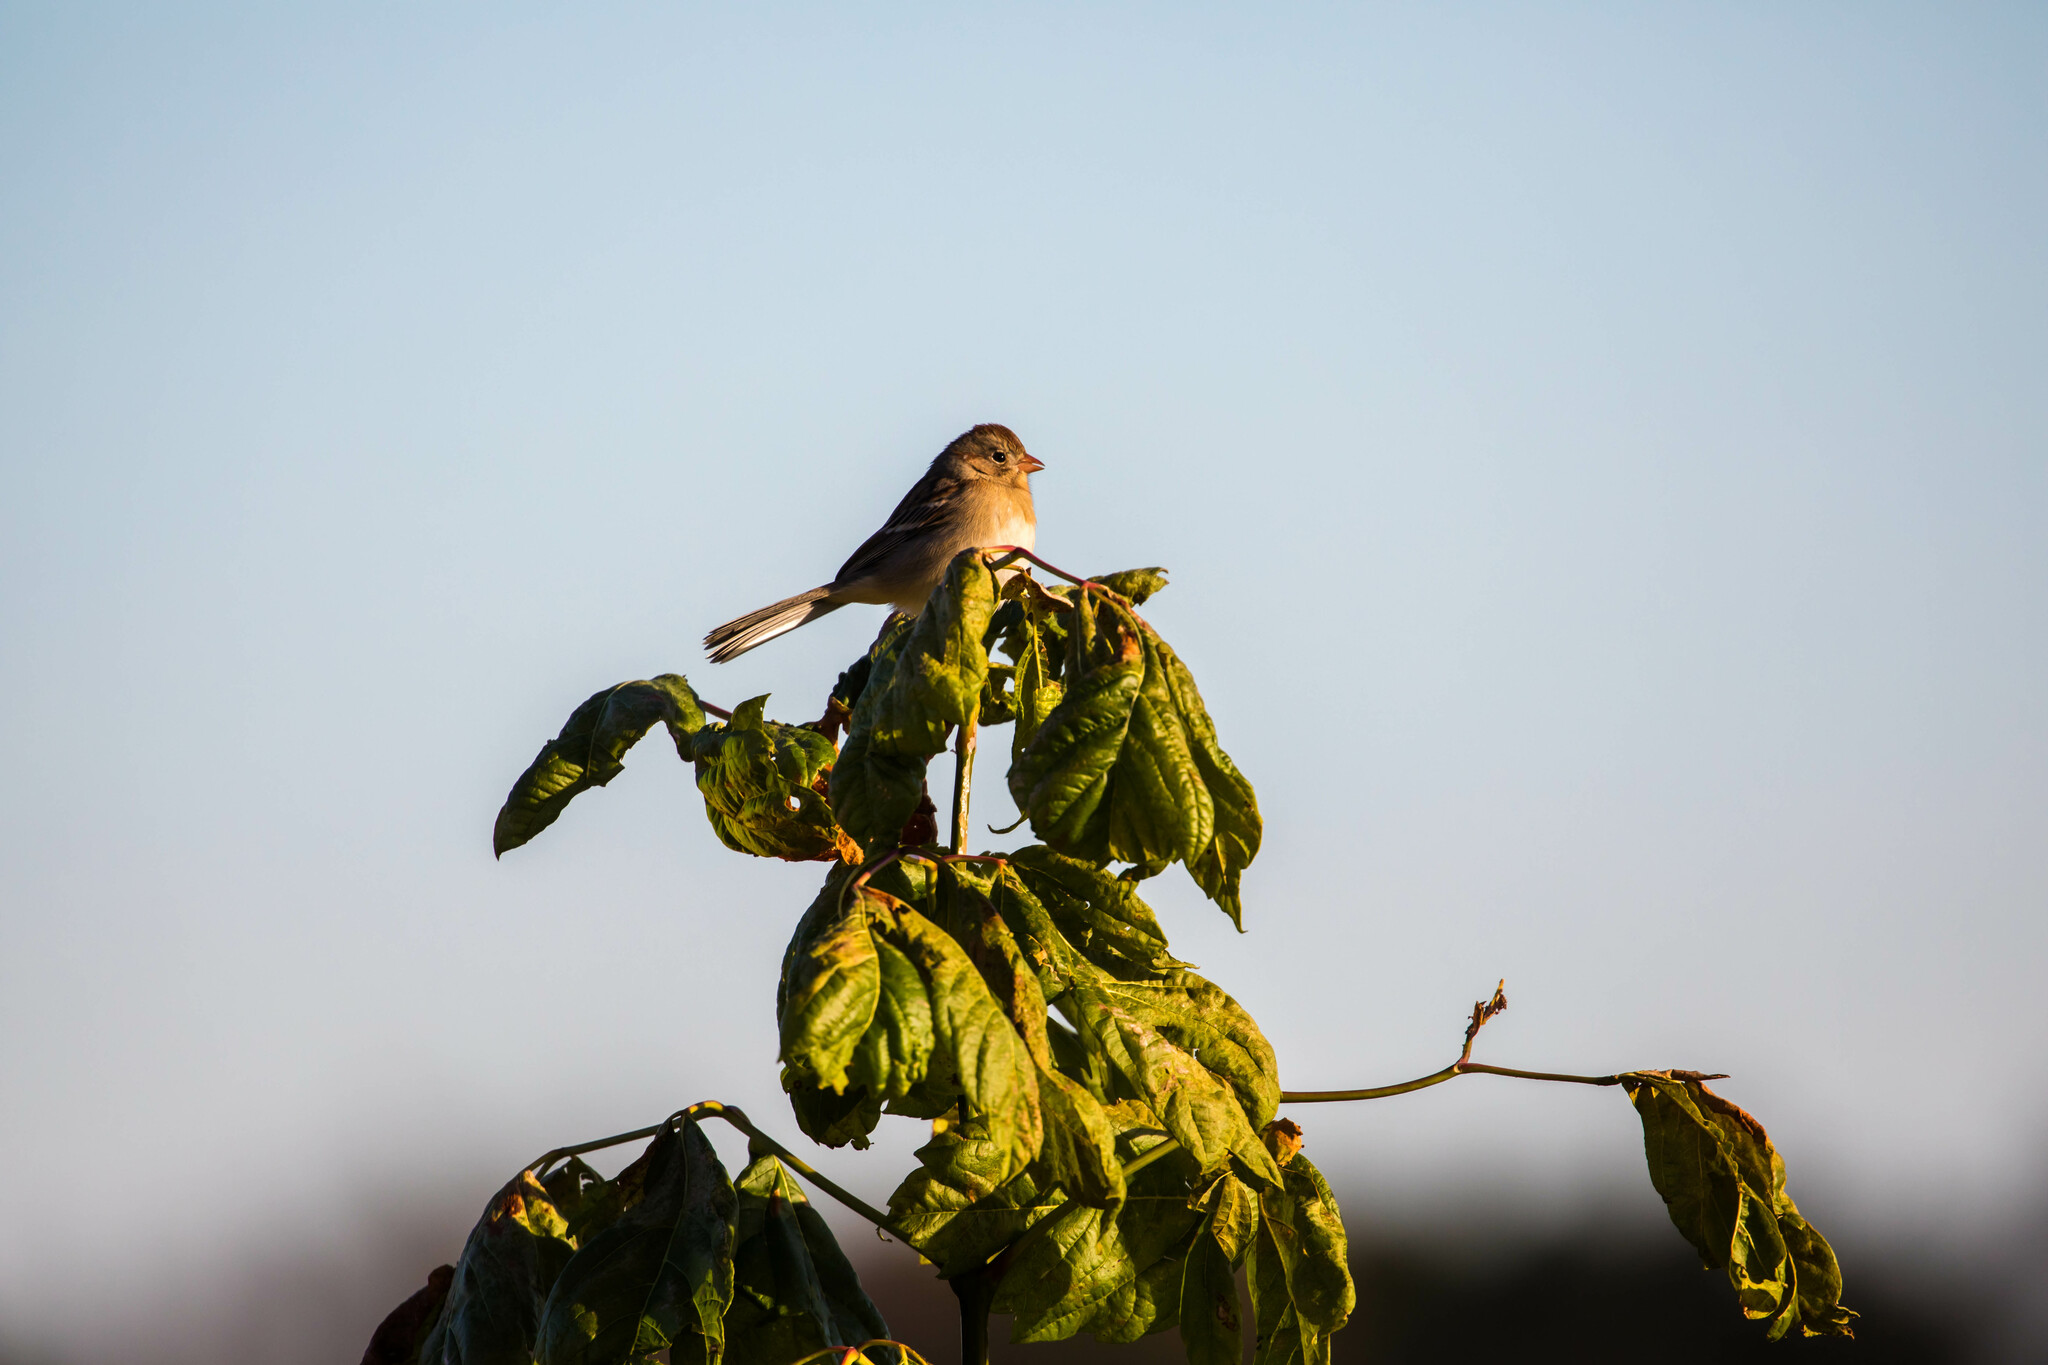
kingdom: Animalia
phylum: Chordata
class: Aves
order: Passeriformes
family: Passerellidae
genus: Spizella
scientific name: Spizella pusilla
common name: Field sparrow
